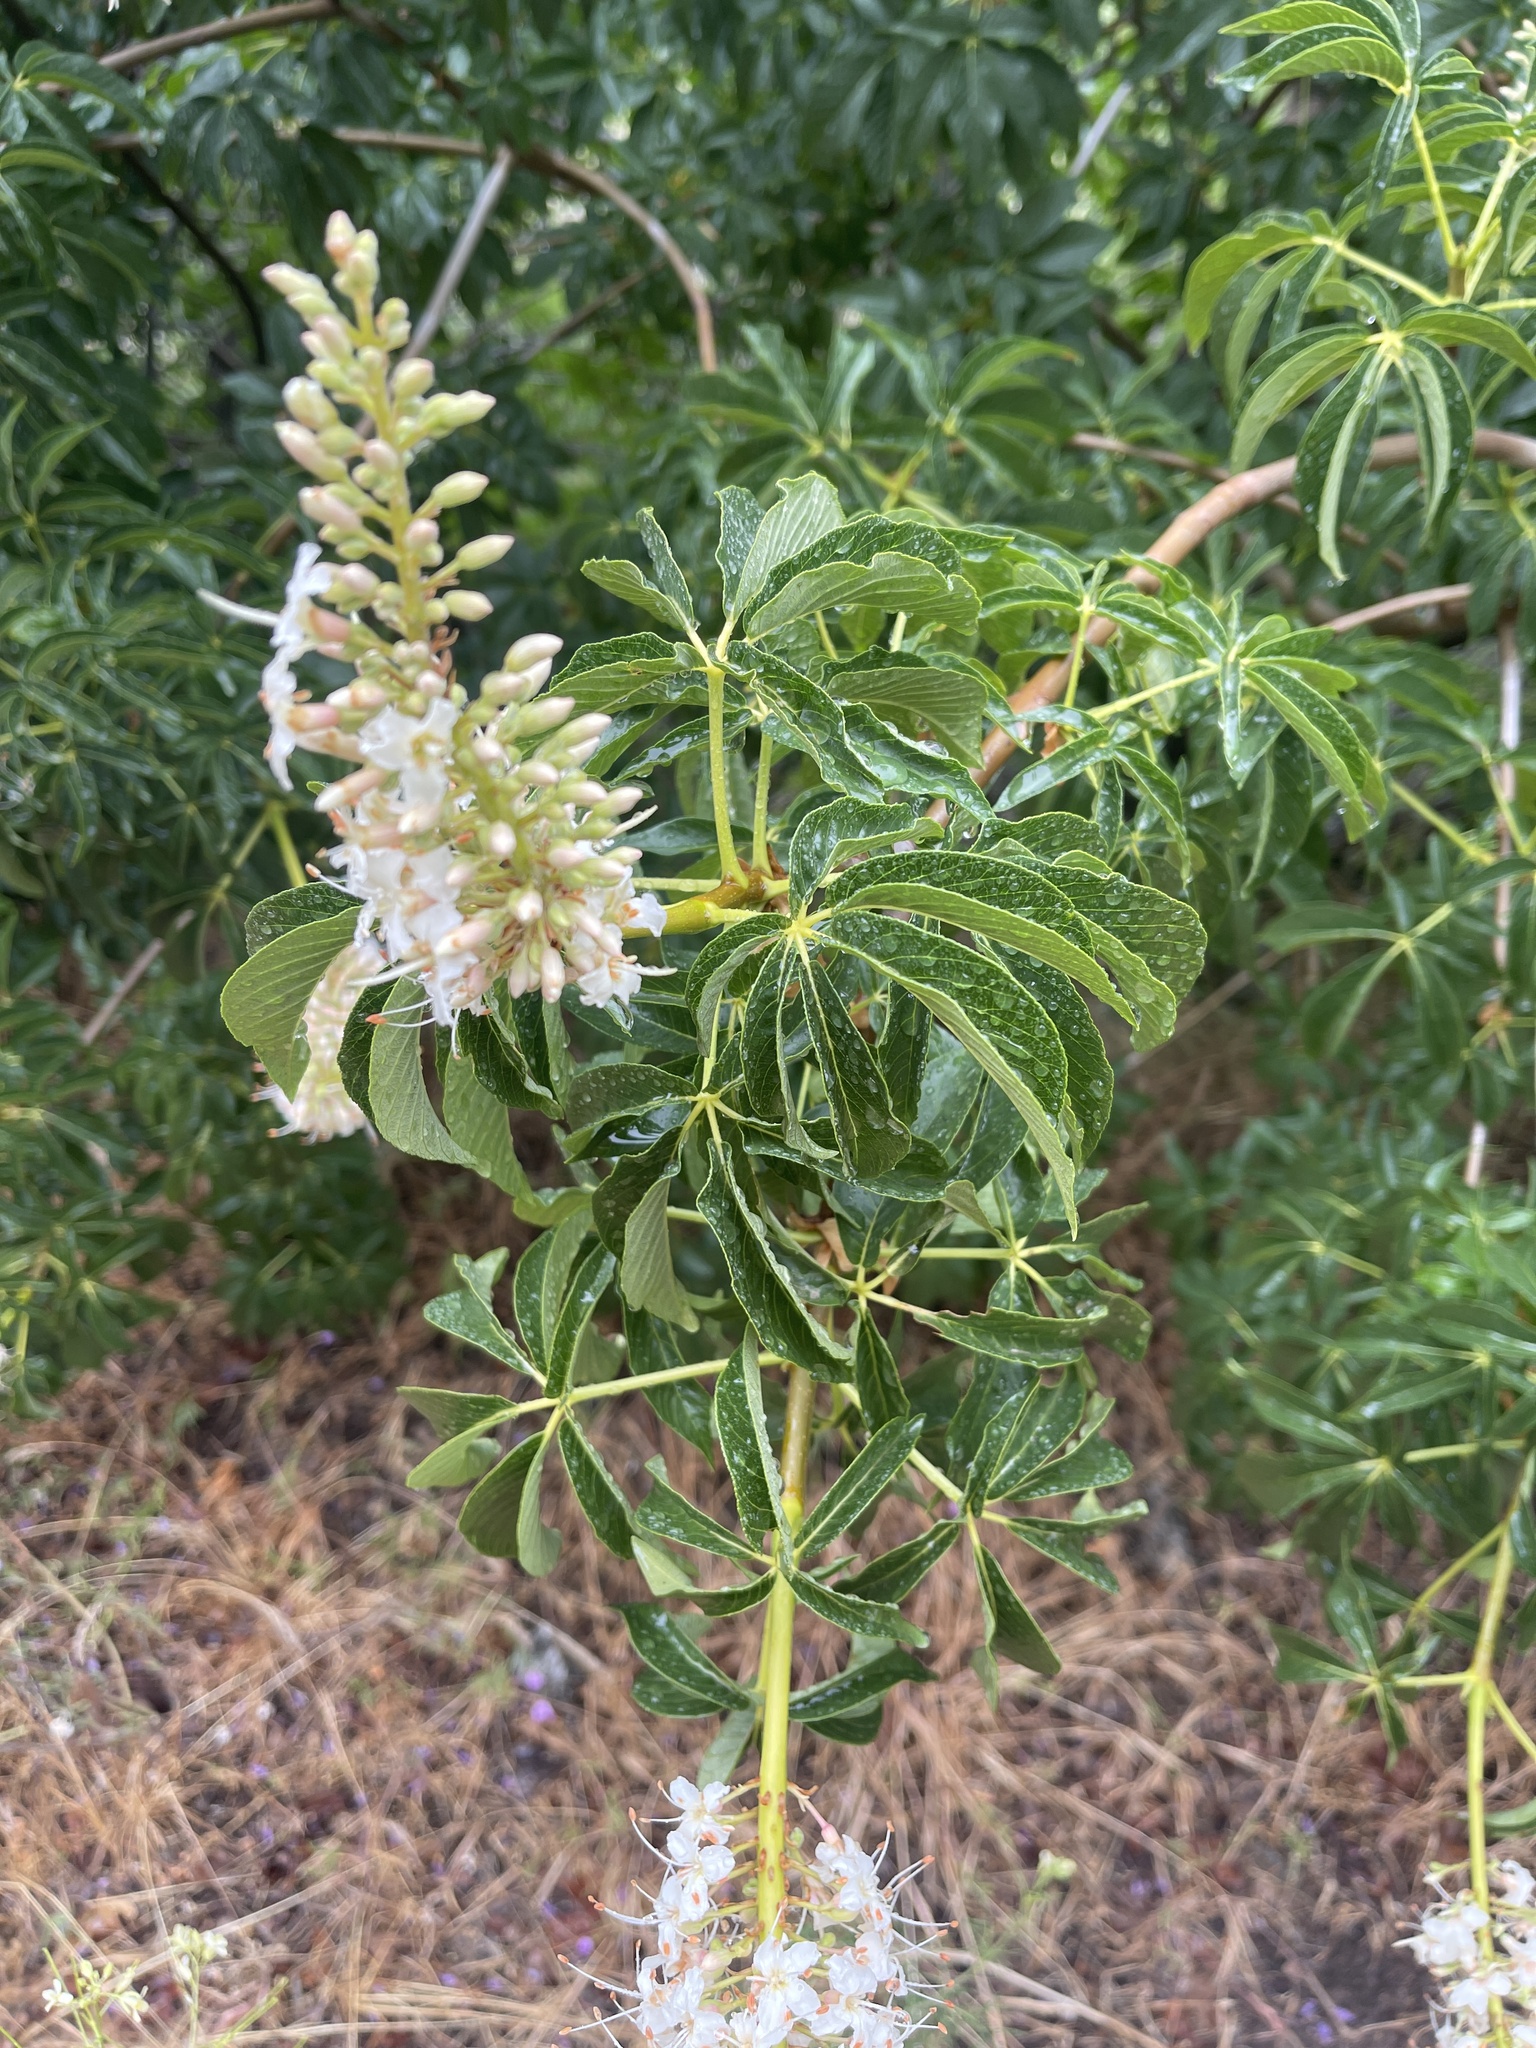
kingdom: Plantae
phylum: Tracheophyta
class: Magnoliopsida
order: Sapindales
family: Sapindaceae
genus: Aesculus
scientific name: Aesculus californica
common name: California buckeye
